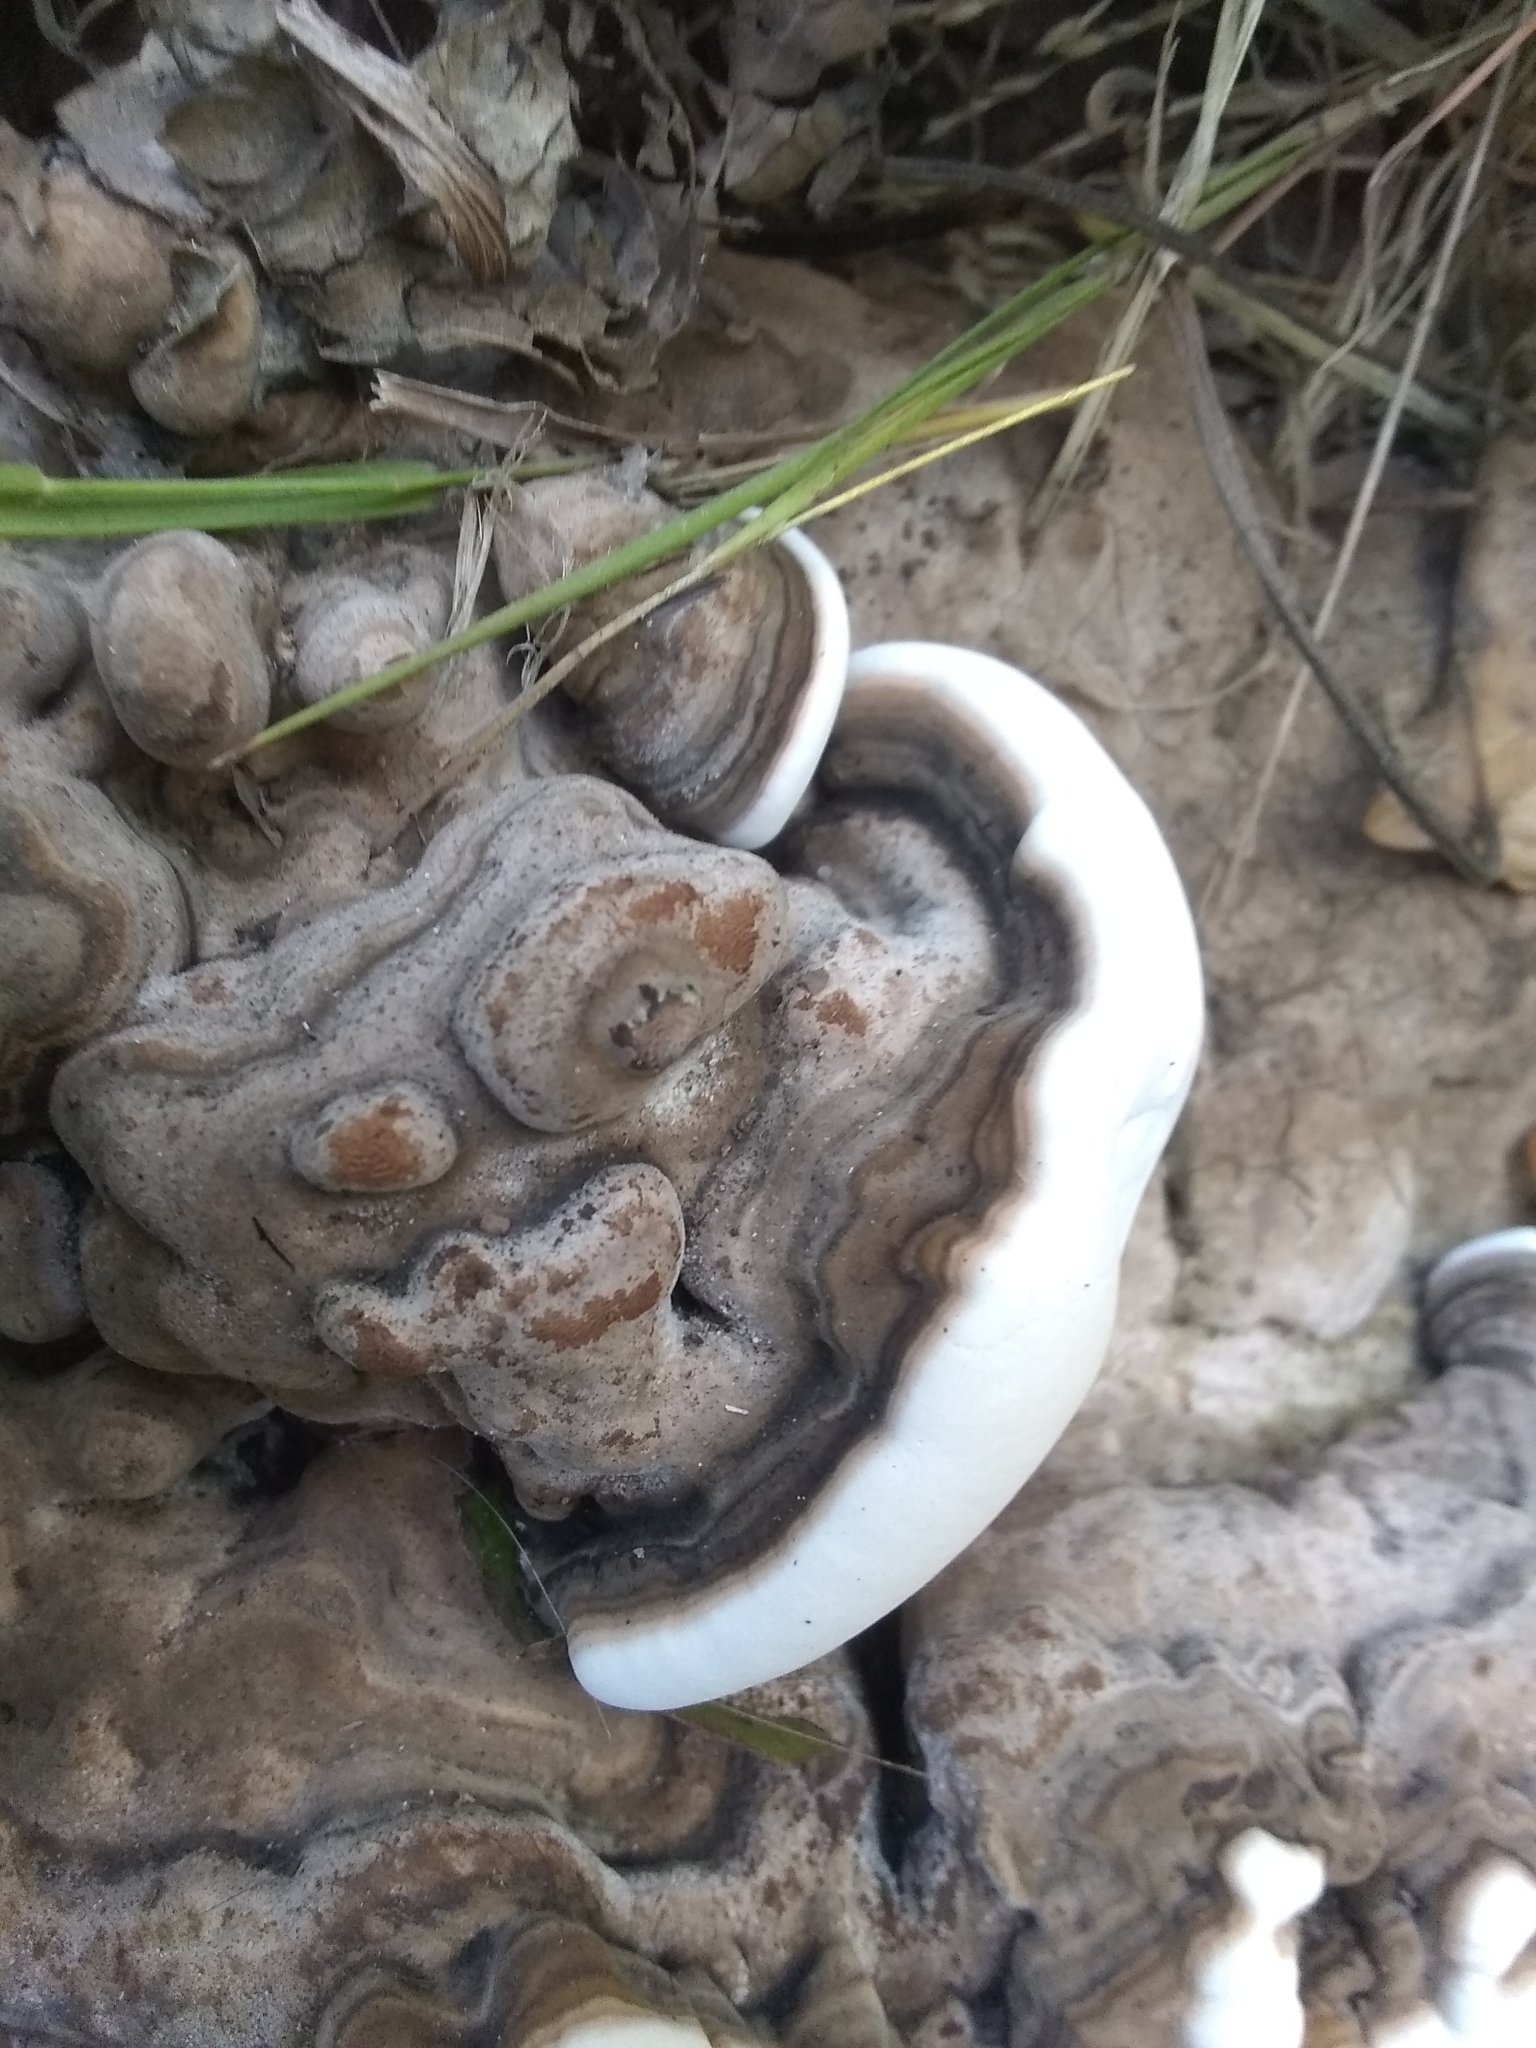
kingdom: Fungi
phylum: Basidiomycota
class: Agaricomycetes
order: Polyporales
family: Polyporaceae
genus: Ganoderma
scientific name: Ganoderma applanatum
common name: Artist's bracket
